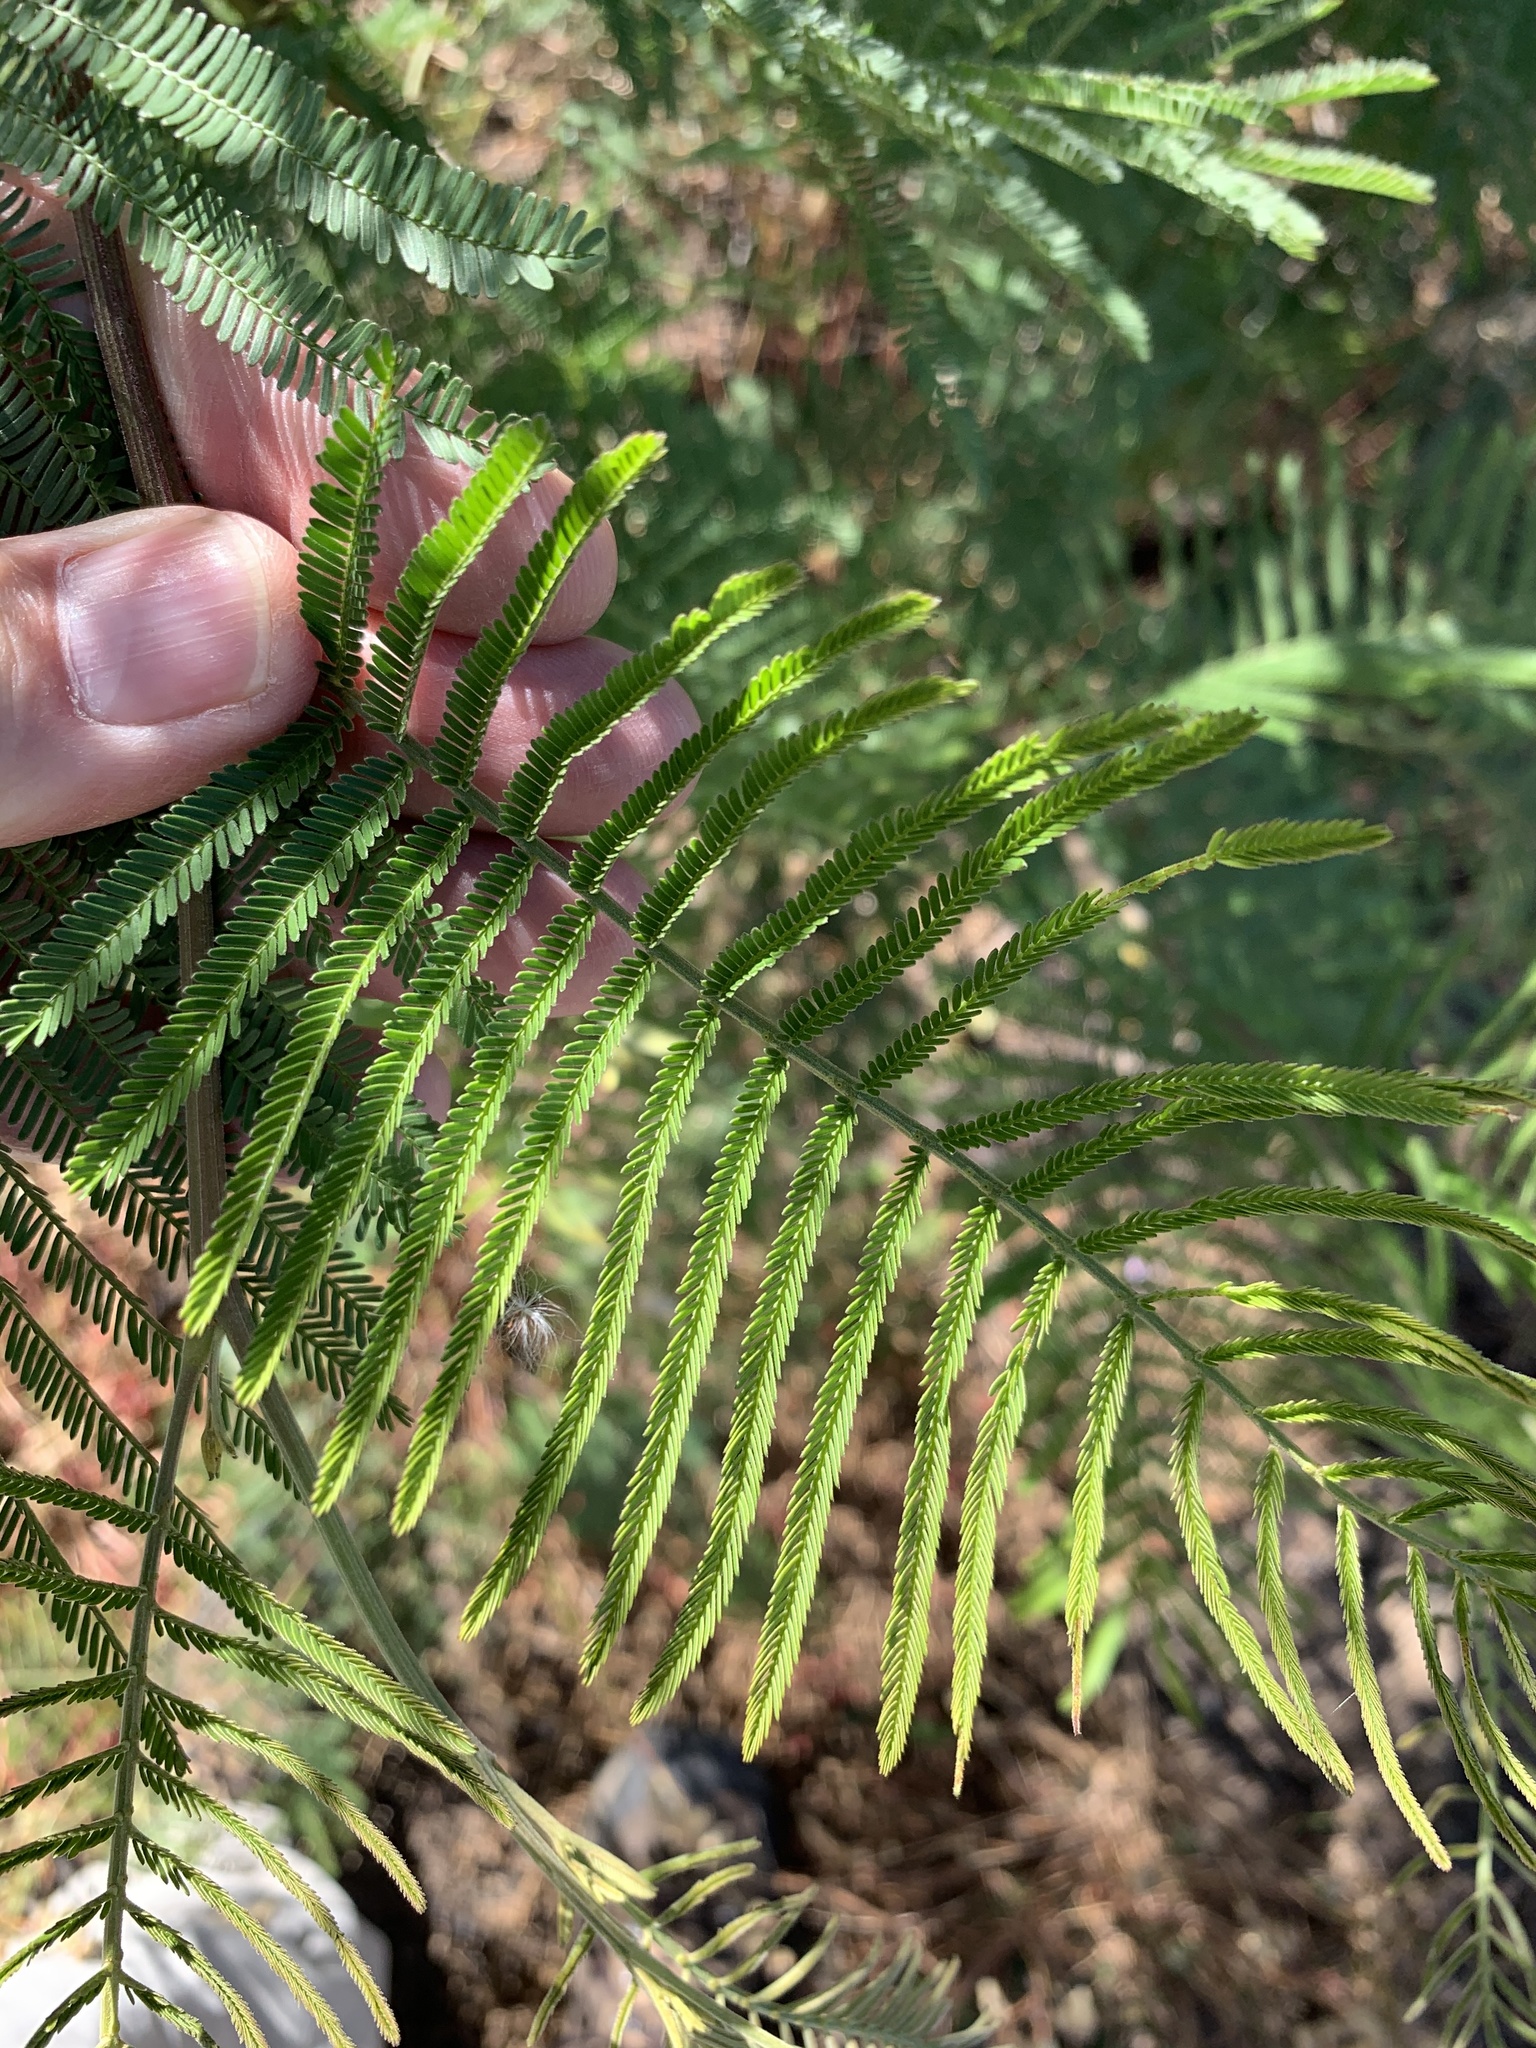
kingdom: Plantae
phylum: Tracheophyta
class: Magnoliopsida
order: Fabales
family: Fabaceae
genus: Acacia
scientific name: Acacia mearnsii
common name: Black wattle
